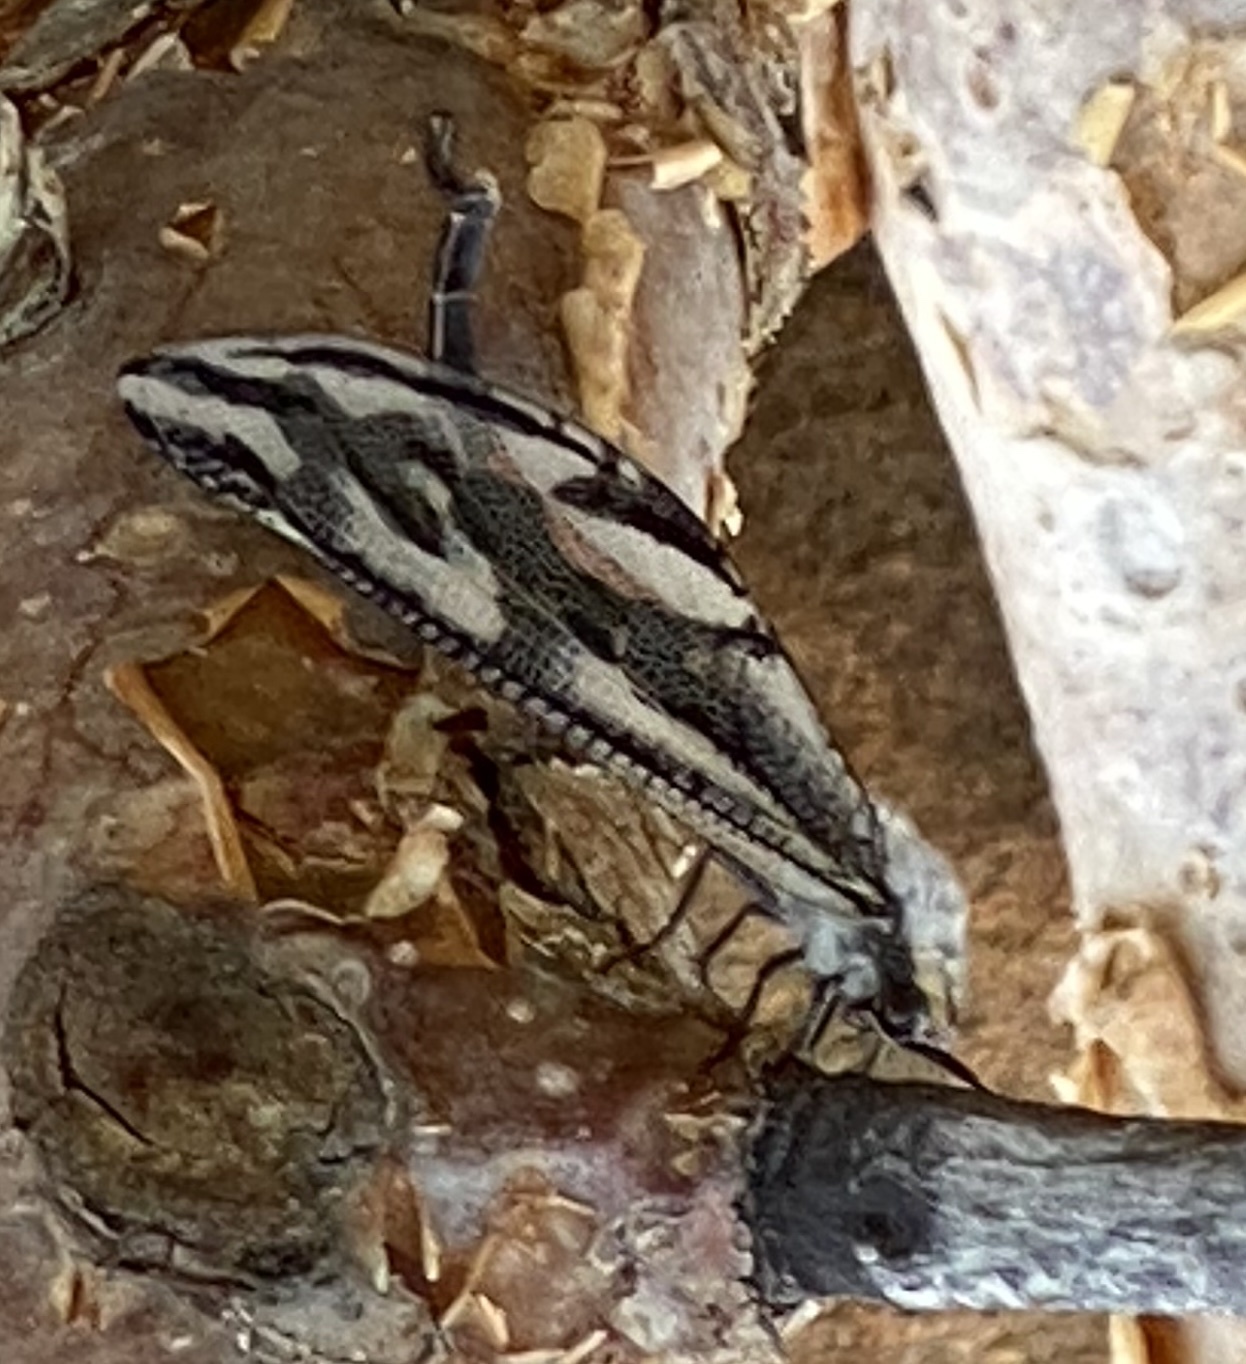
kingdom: Animalia
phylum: Arthropoda
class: Insecta
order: Neuroptera
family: Myrmeleontidae
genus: Palpares
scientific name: Palpares immensus
